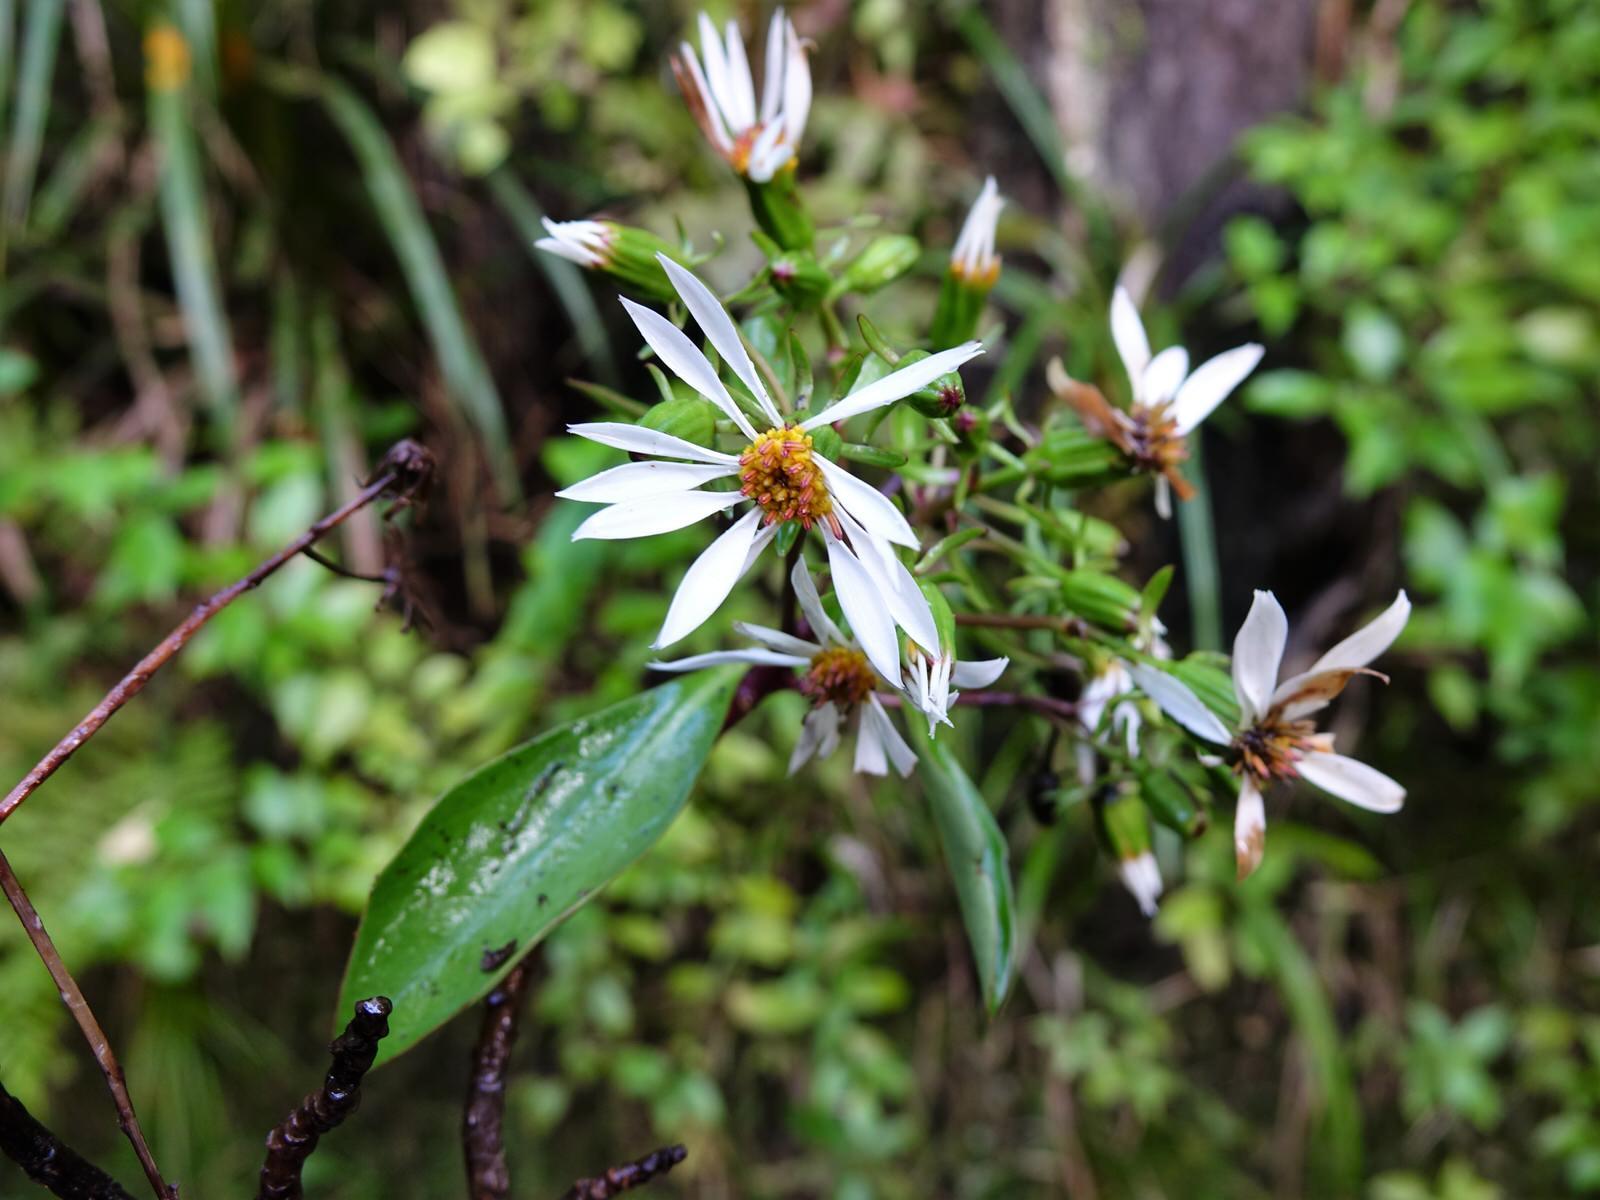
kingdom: Plantae
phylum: Tracheophyta
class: Magnoliopsida
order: Asterales
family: Asteraceae
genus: Brachyglottis
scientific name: Brachyglottis kirkii
